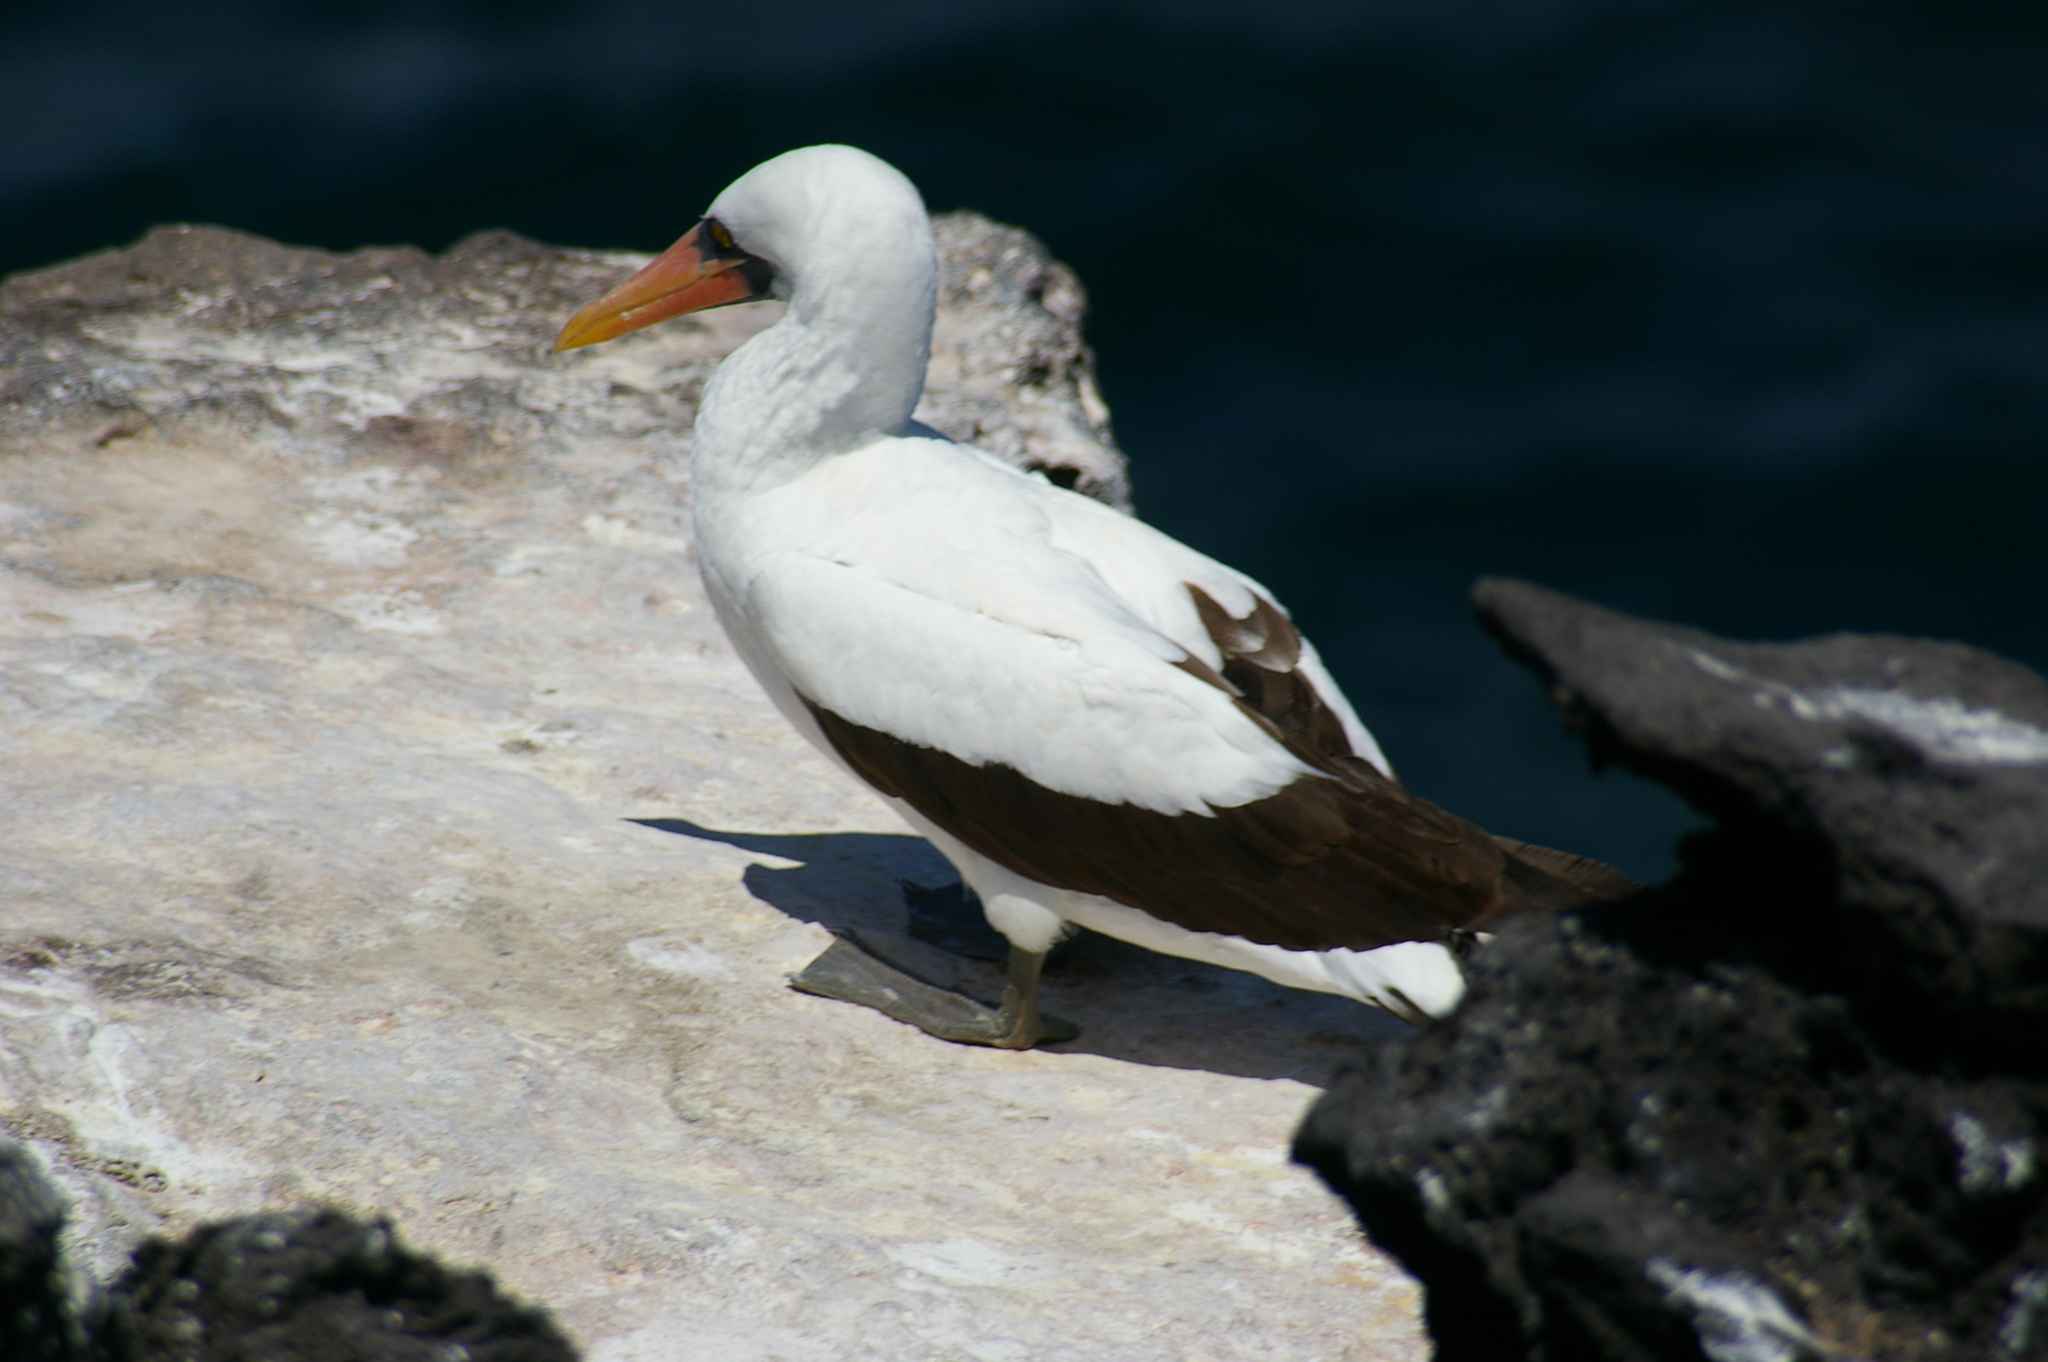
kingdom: Animalia
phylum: Chordata
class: Aves
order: Suliformes
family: Sulidae
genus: Sula
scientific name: Sula granti
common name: Nazca booby
